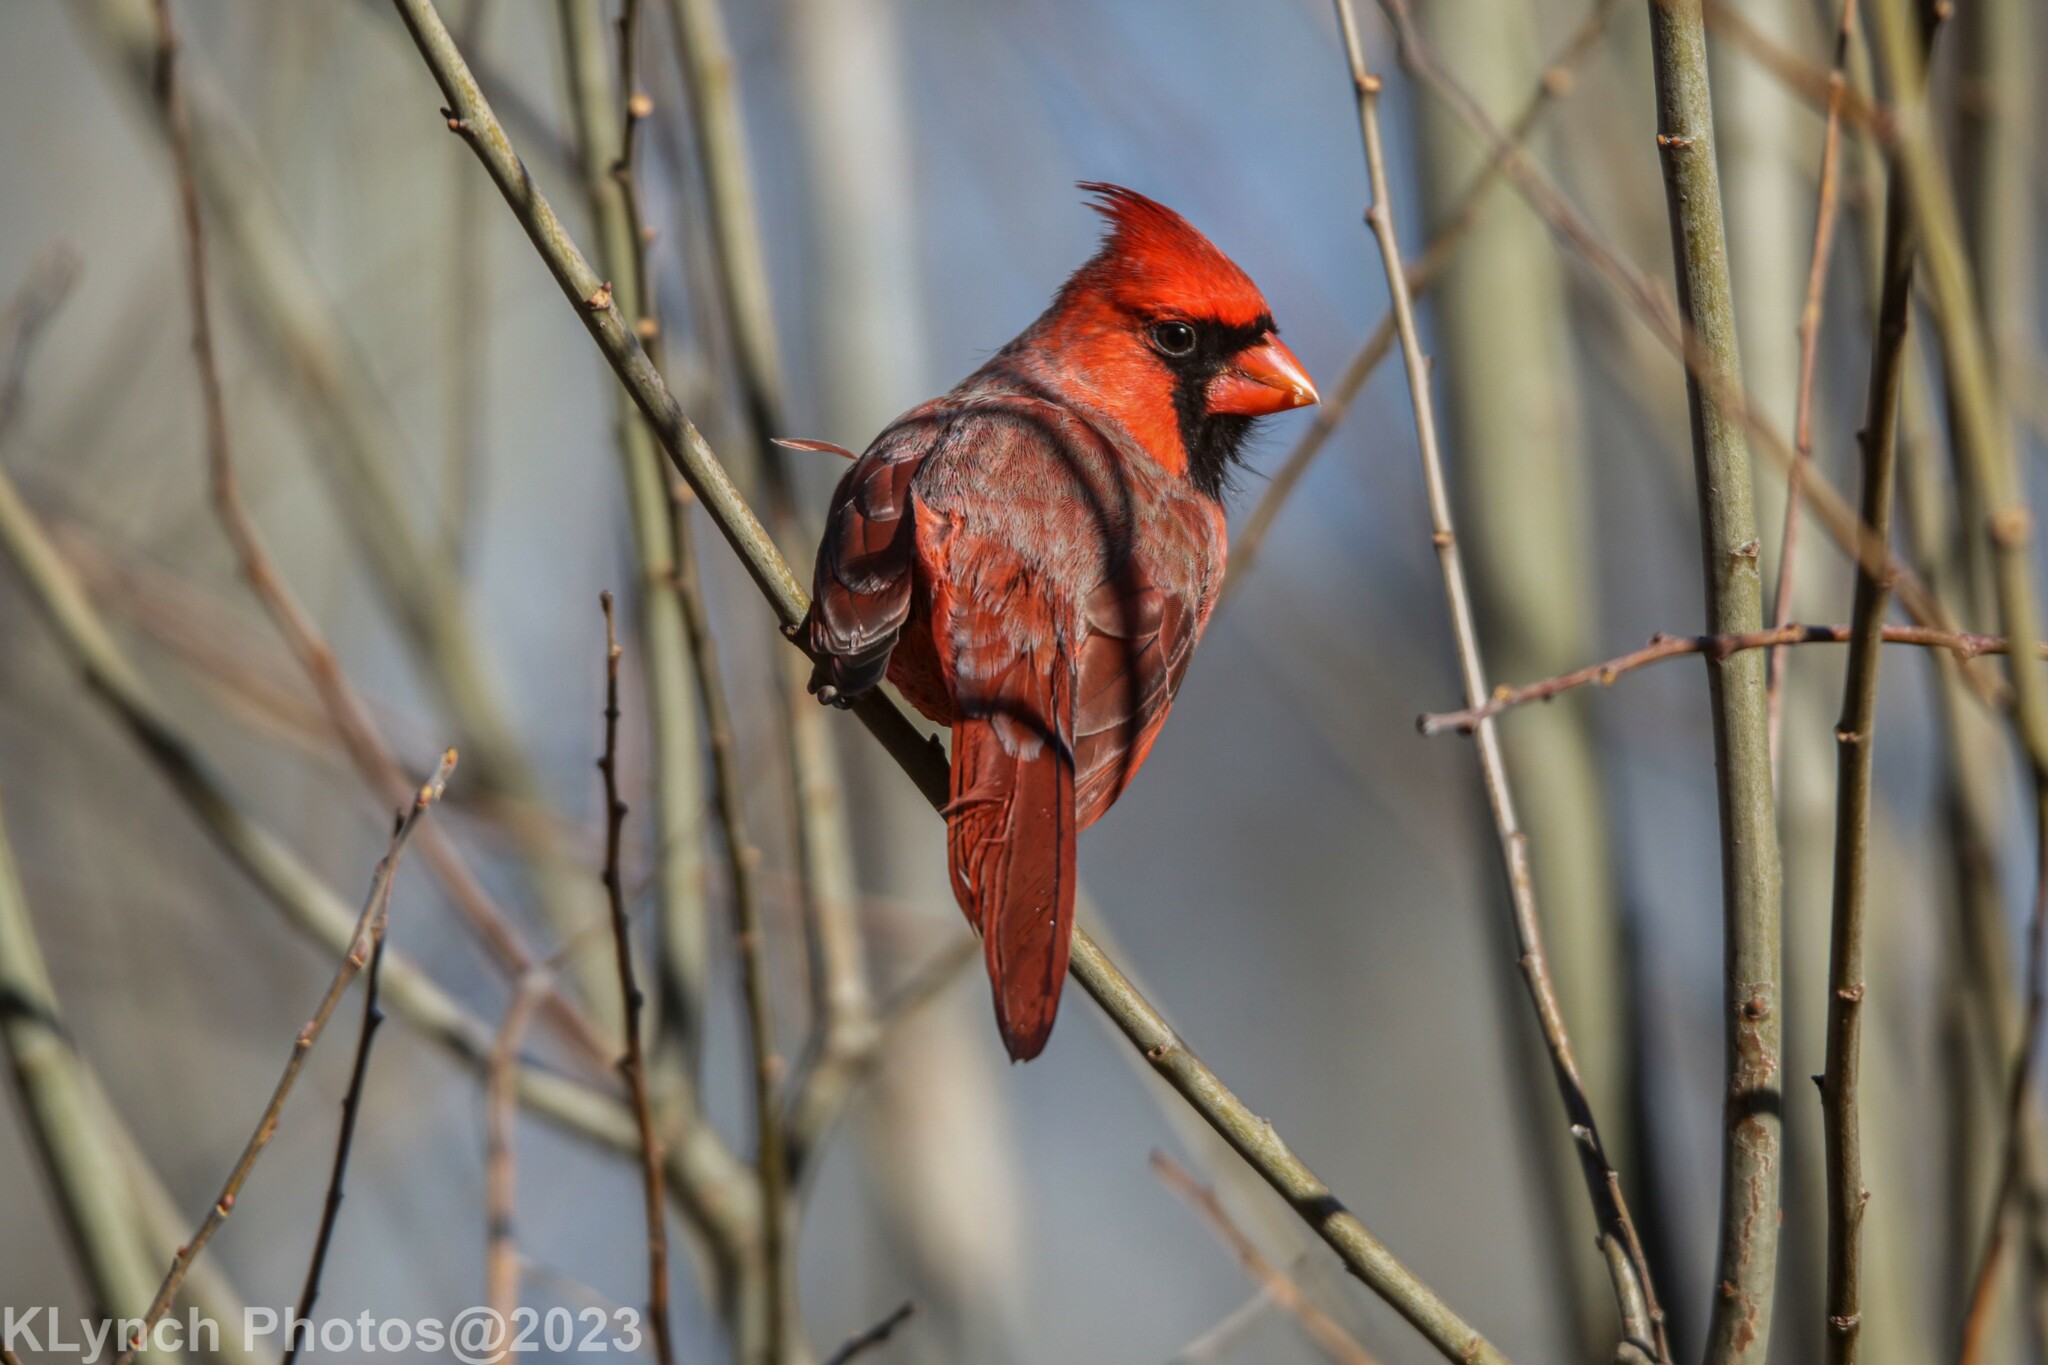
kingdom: Animalia
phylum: Chordata
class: Aves
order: Passeriformes
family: Cardinalidae
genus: Cardinalis
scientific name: Cardinalis cardinalis
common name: Northern cardinal
